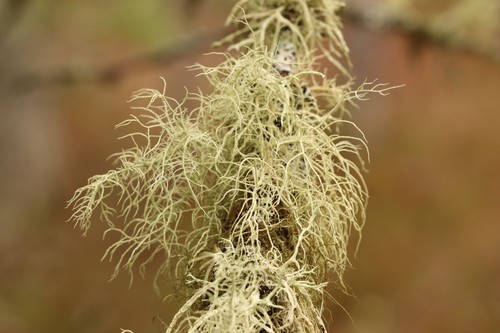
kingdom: Fungi
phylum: Ascomycota
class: Lecanoromycetes
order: Lecanorales
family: Parmeliaceae
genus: Usnea
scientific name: Usnea
